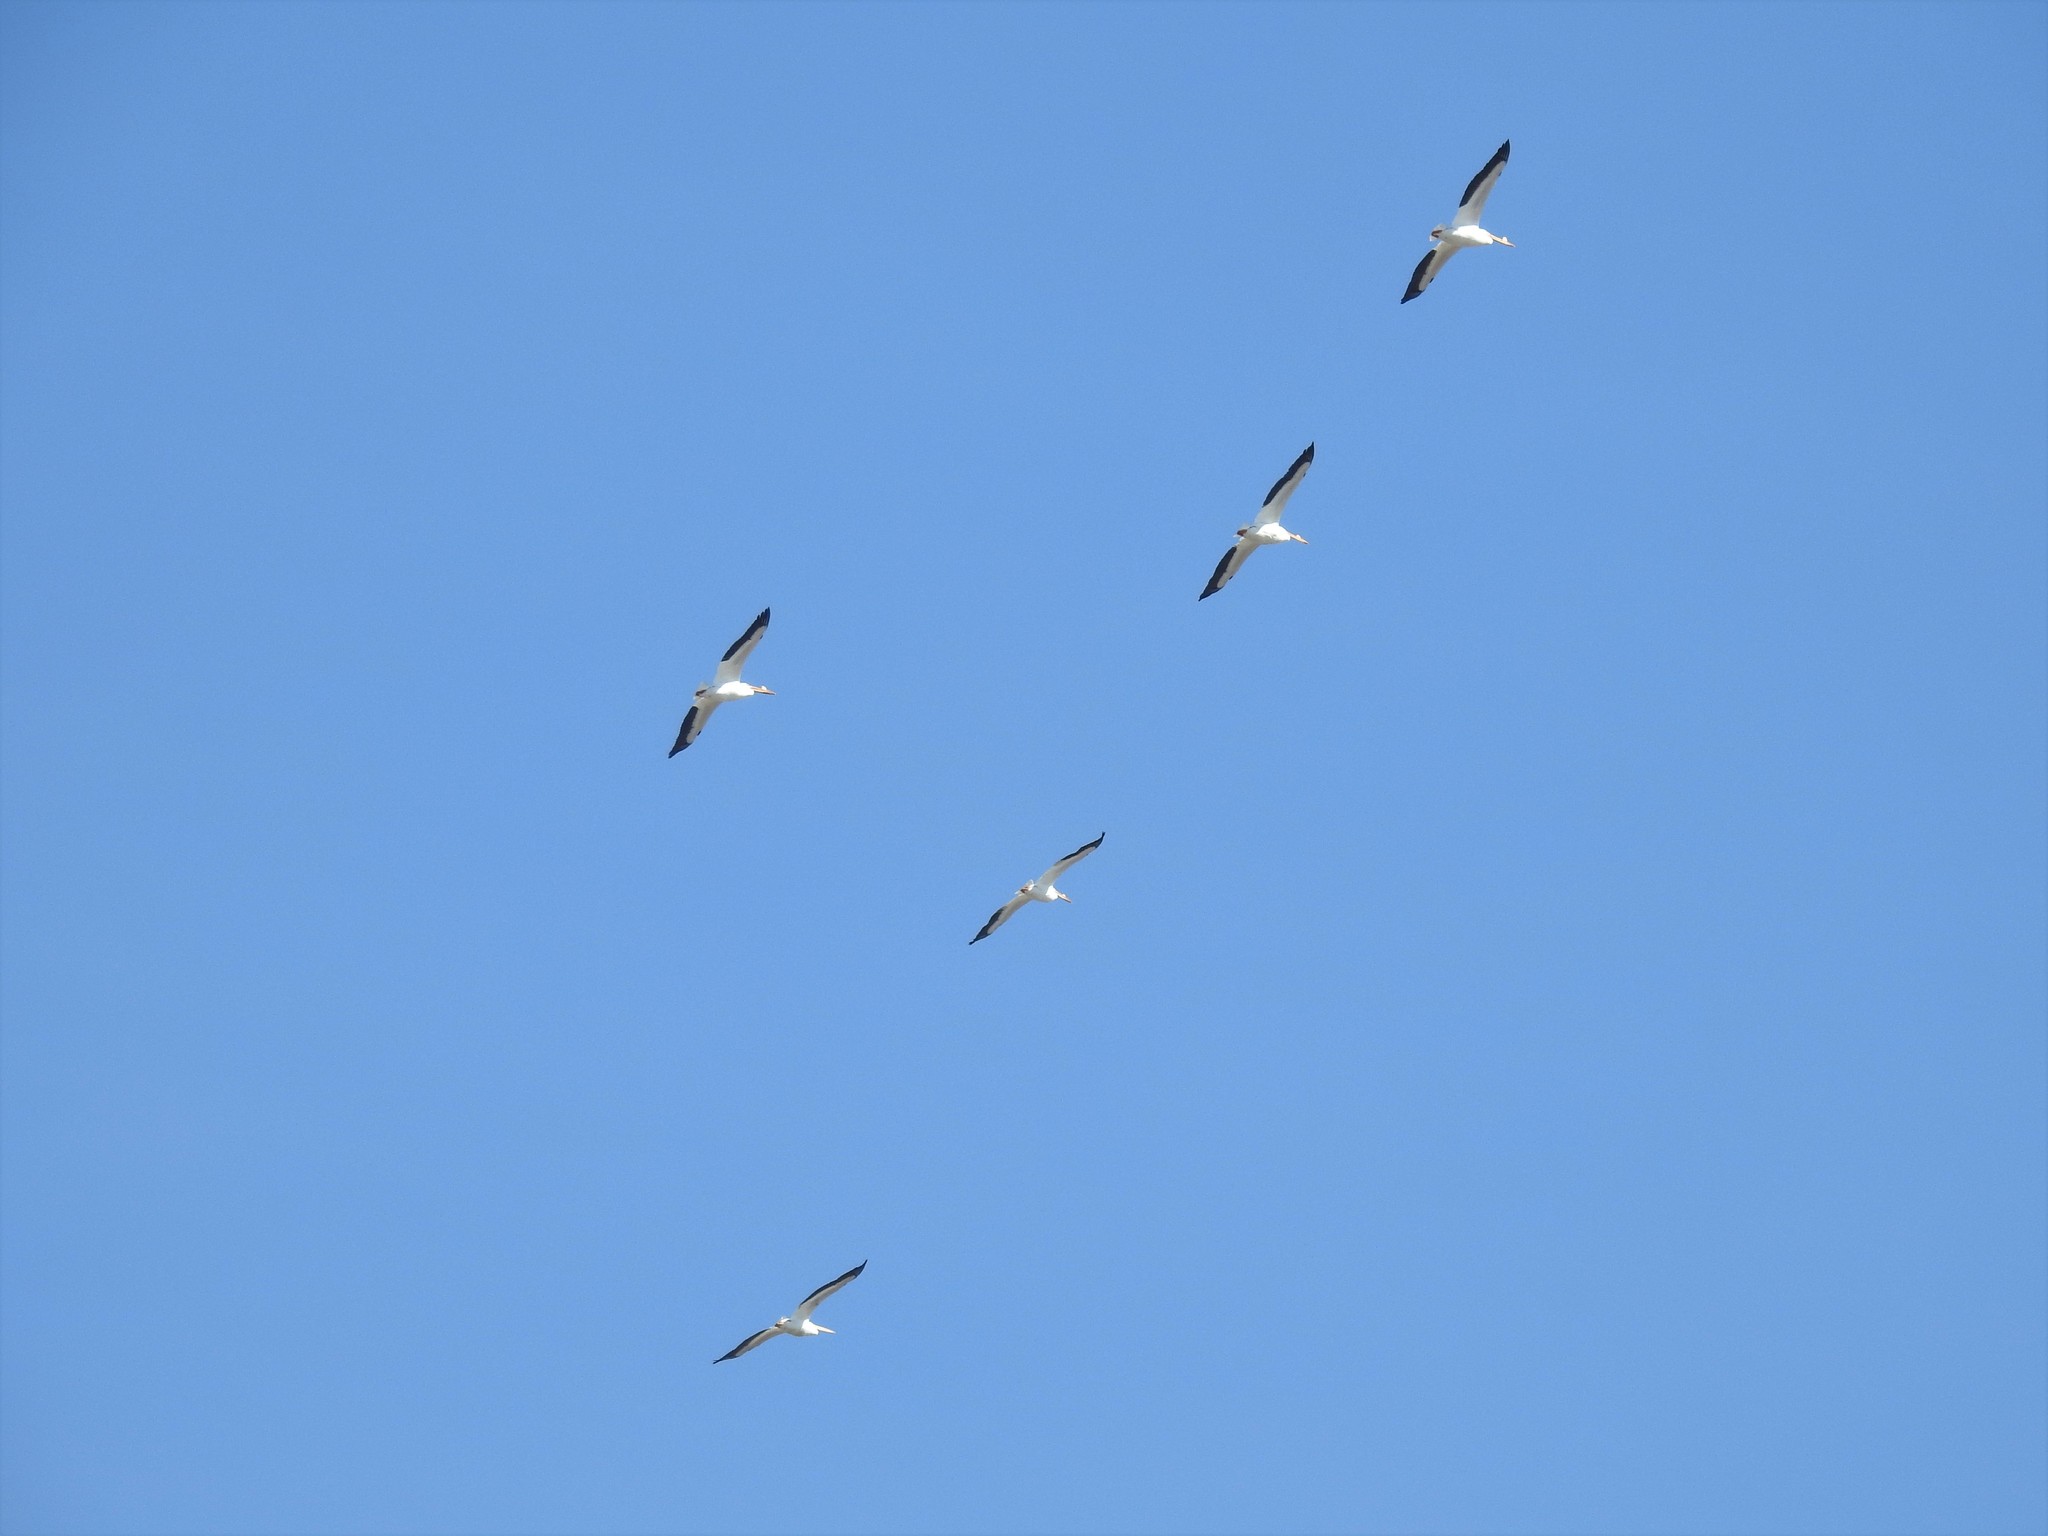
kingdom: Animalia
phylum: Chordata
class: Aves
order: Pelecaniformes
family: Pelecanidae
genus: Pelecanus
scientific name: Pelecanus erythrorhynchos
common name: American white pelican
